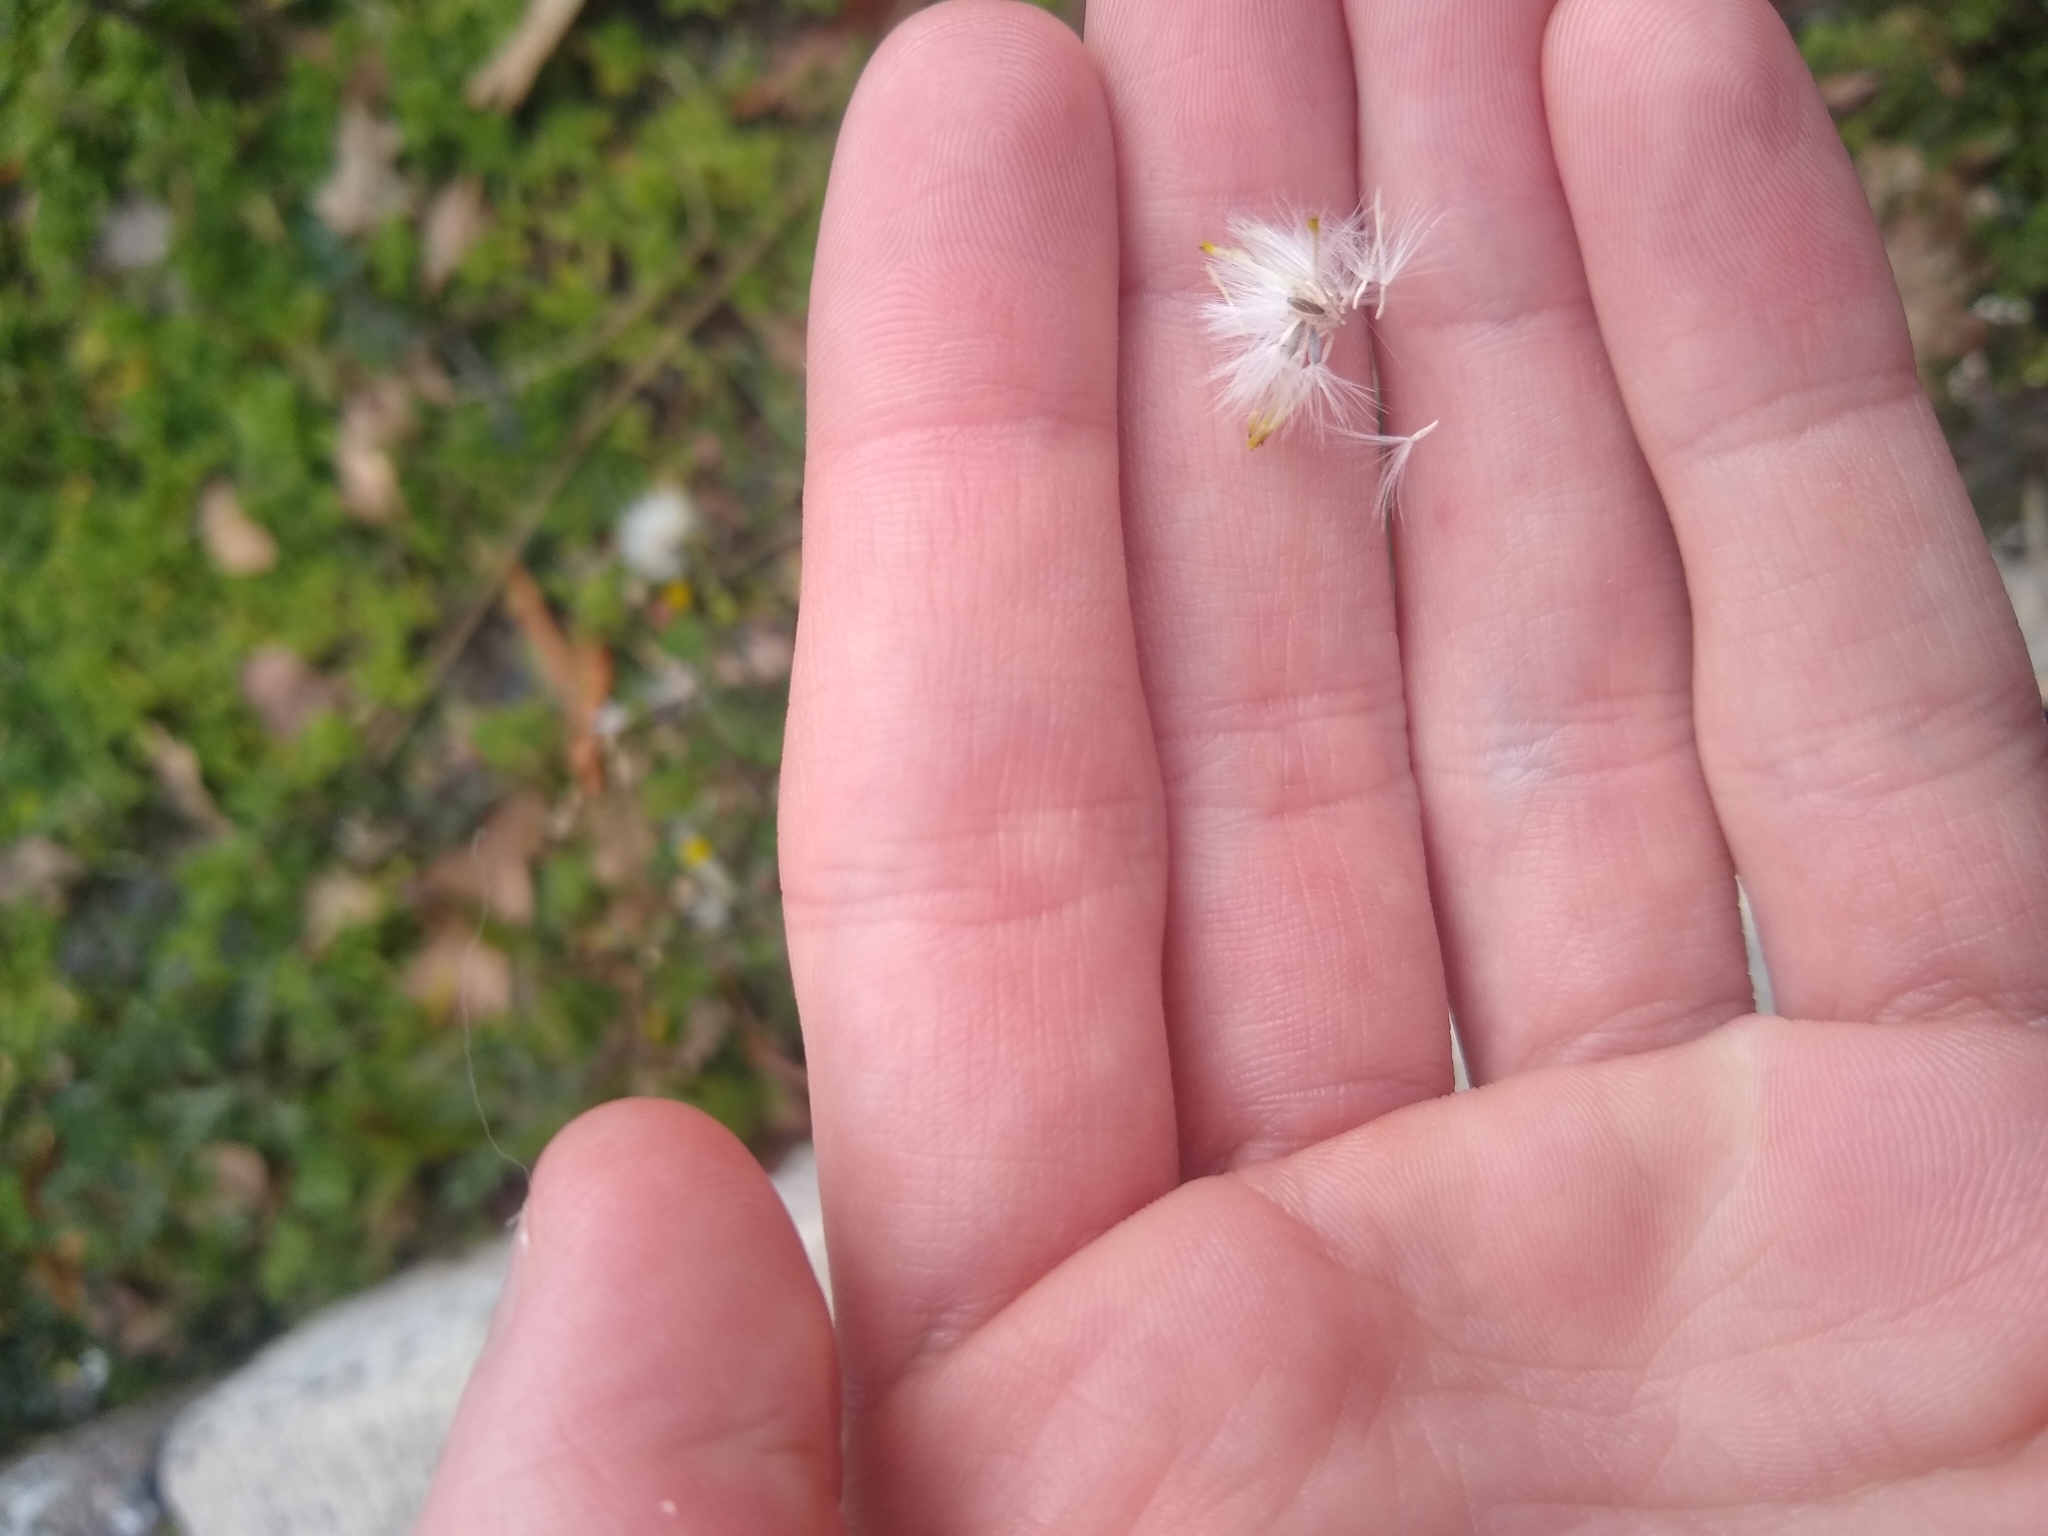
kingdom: Plantae
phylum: Tracheophyta
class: Magnoliopsida
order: Asterales
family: Asteraceae
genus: Senecio
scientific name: Senecio vulgaris
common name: Old-man-in-the-spring
